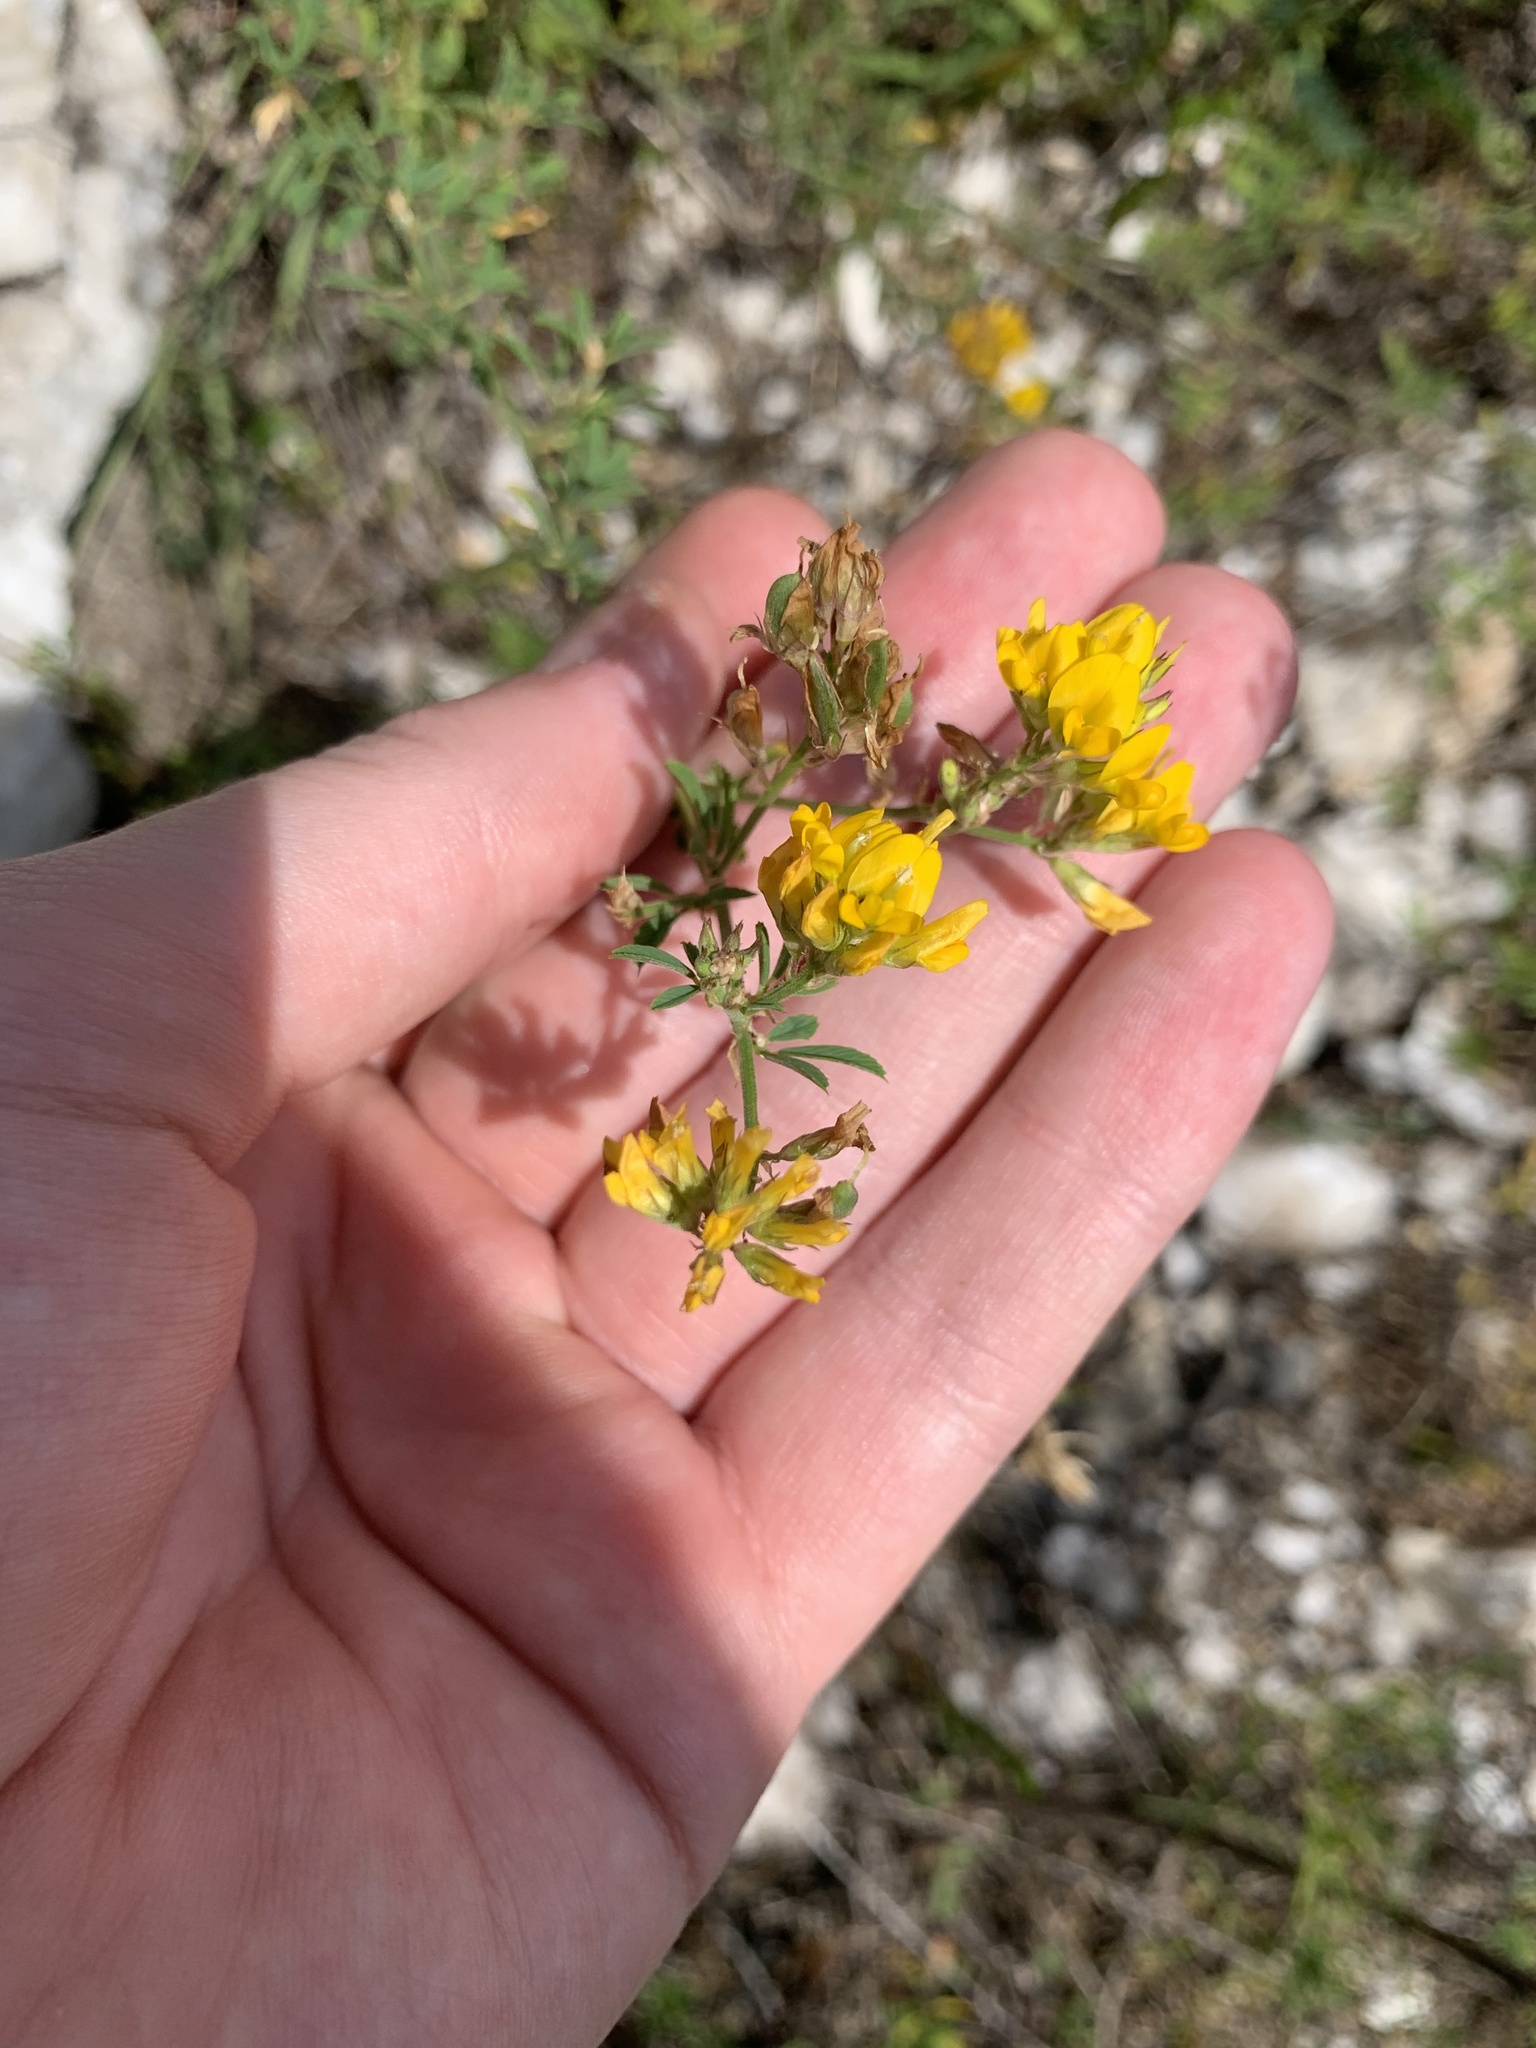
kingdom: Plantae
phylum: Tracheophyta
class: Magnoliopsida
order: Fabales
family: Fabaceae
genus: Medicago
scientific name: Medicago falcata
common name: Sickle medick
